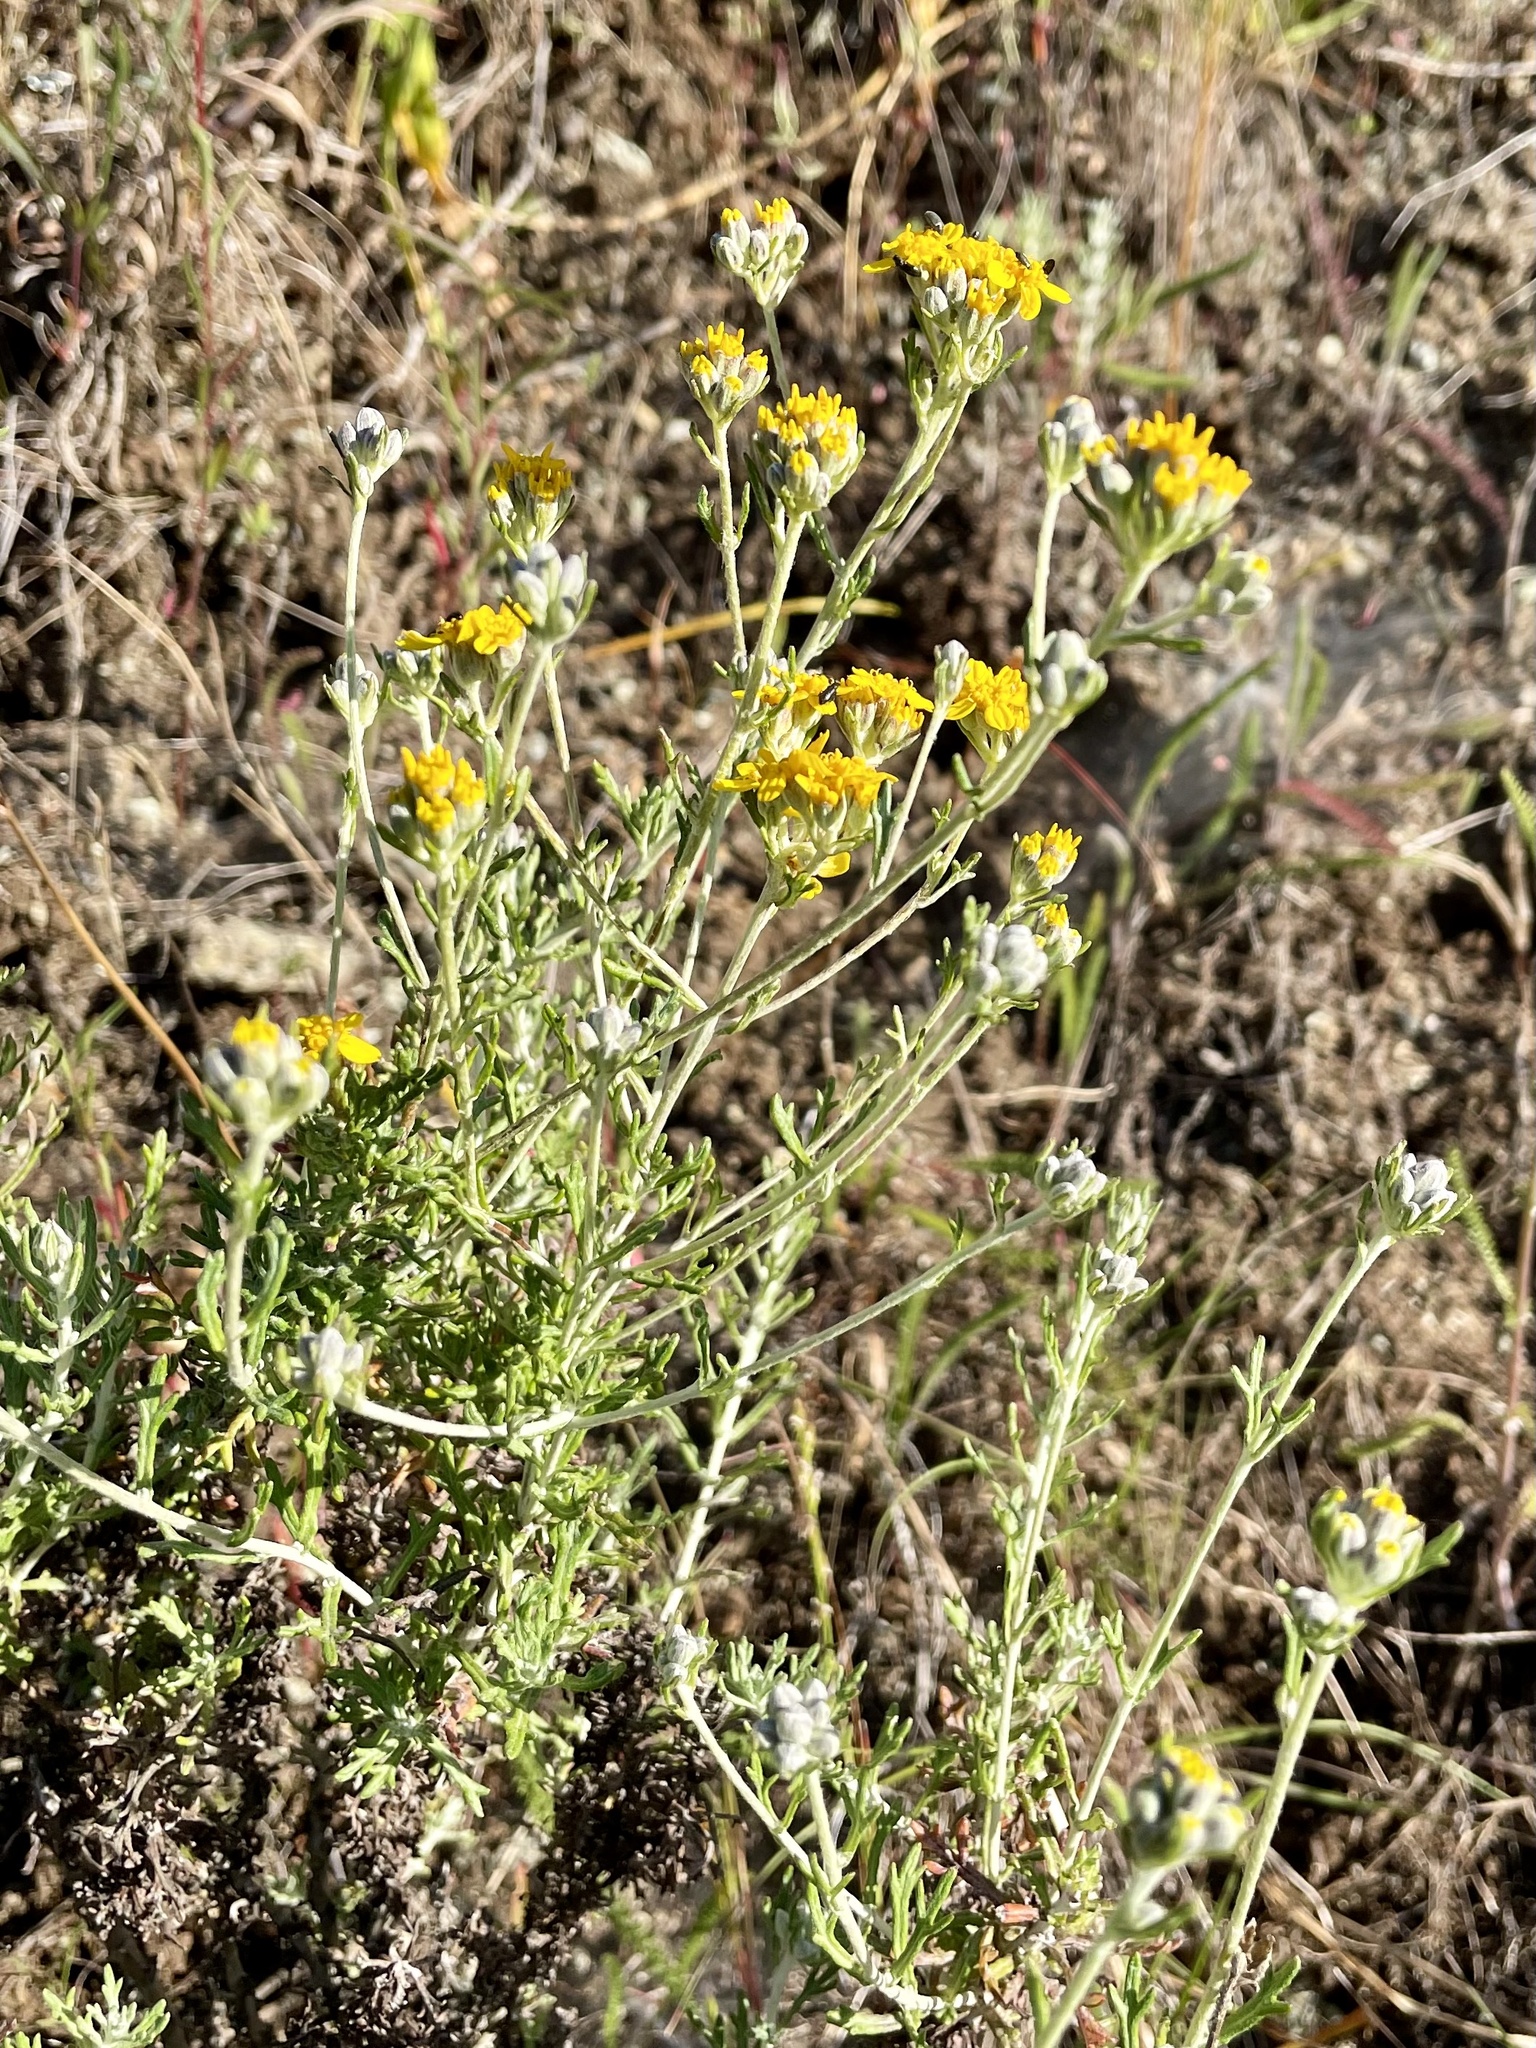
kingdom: Plantae
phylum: Tracheophyta
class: Magnoliopsida
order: Asterales
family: Asteraceae
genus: Eriophyllum
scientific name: Eriophyllum confertiflorum
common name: Golden-yarrow
